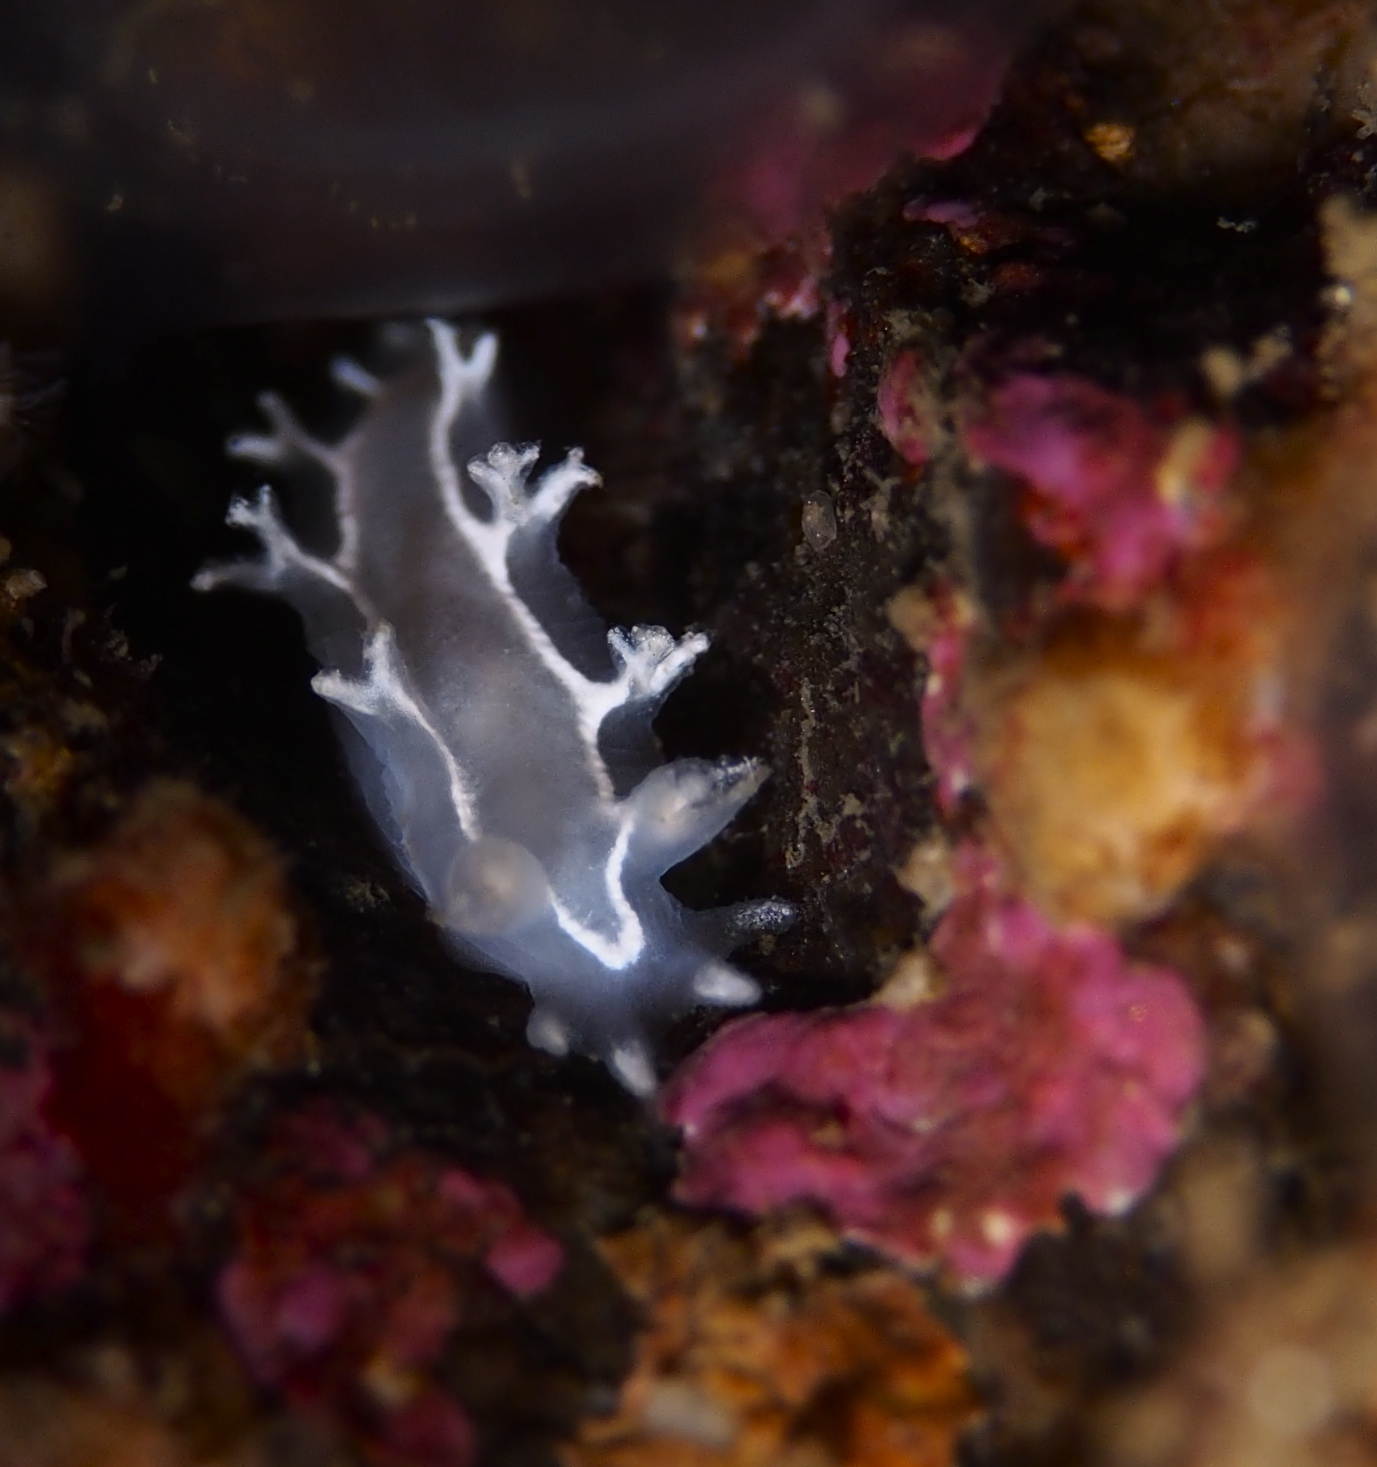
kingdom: Animalia
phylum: Mollusca
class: Gastropoda
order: Nudibranchia
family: Tritoniidae
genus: Duvaucelia
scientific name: Duvaucelia lineata
